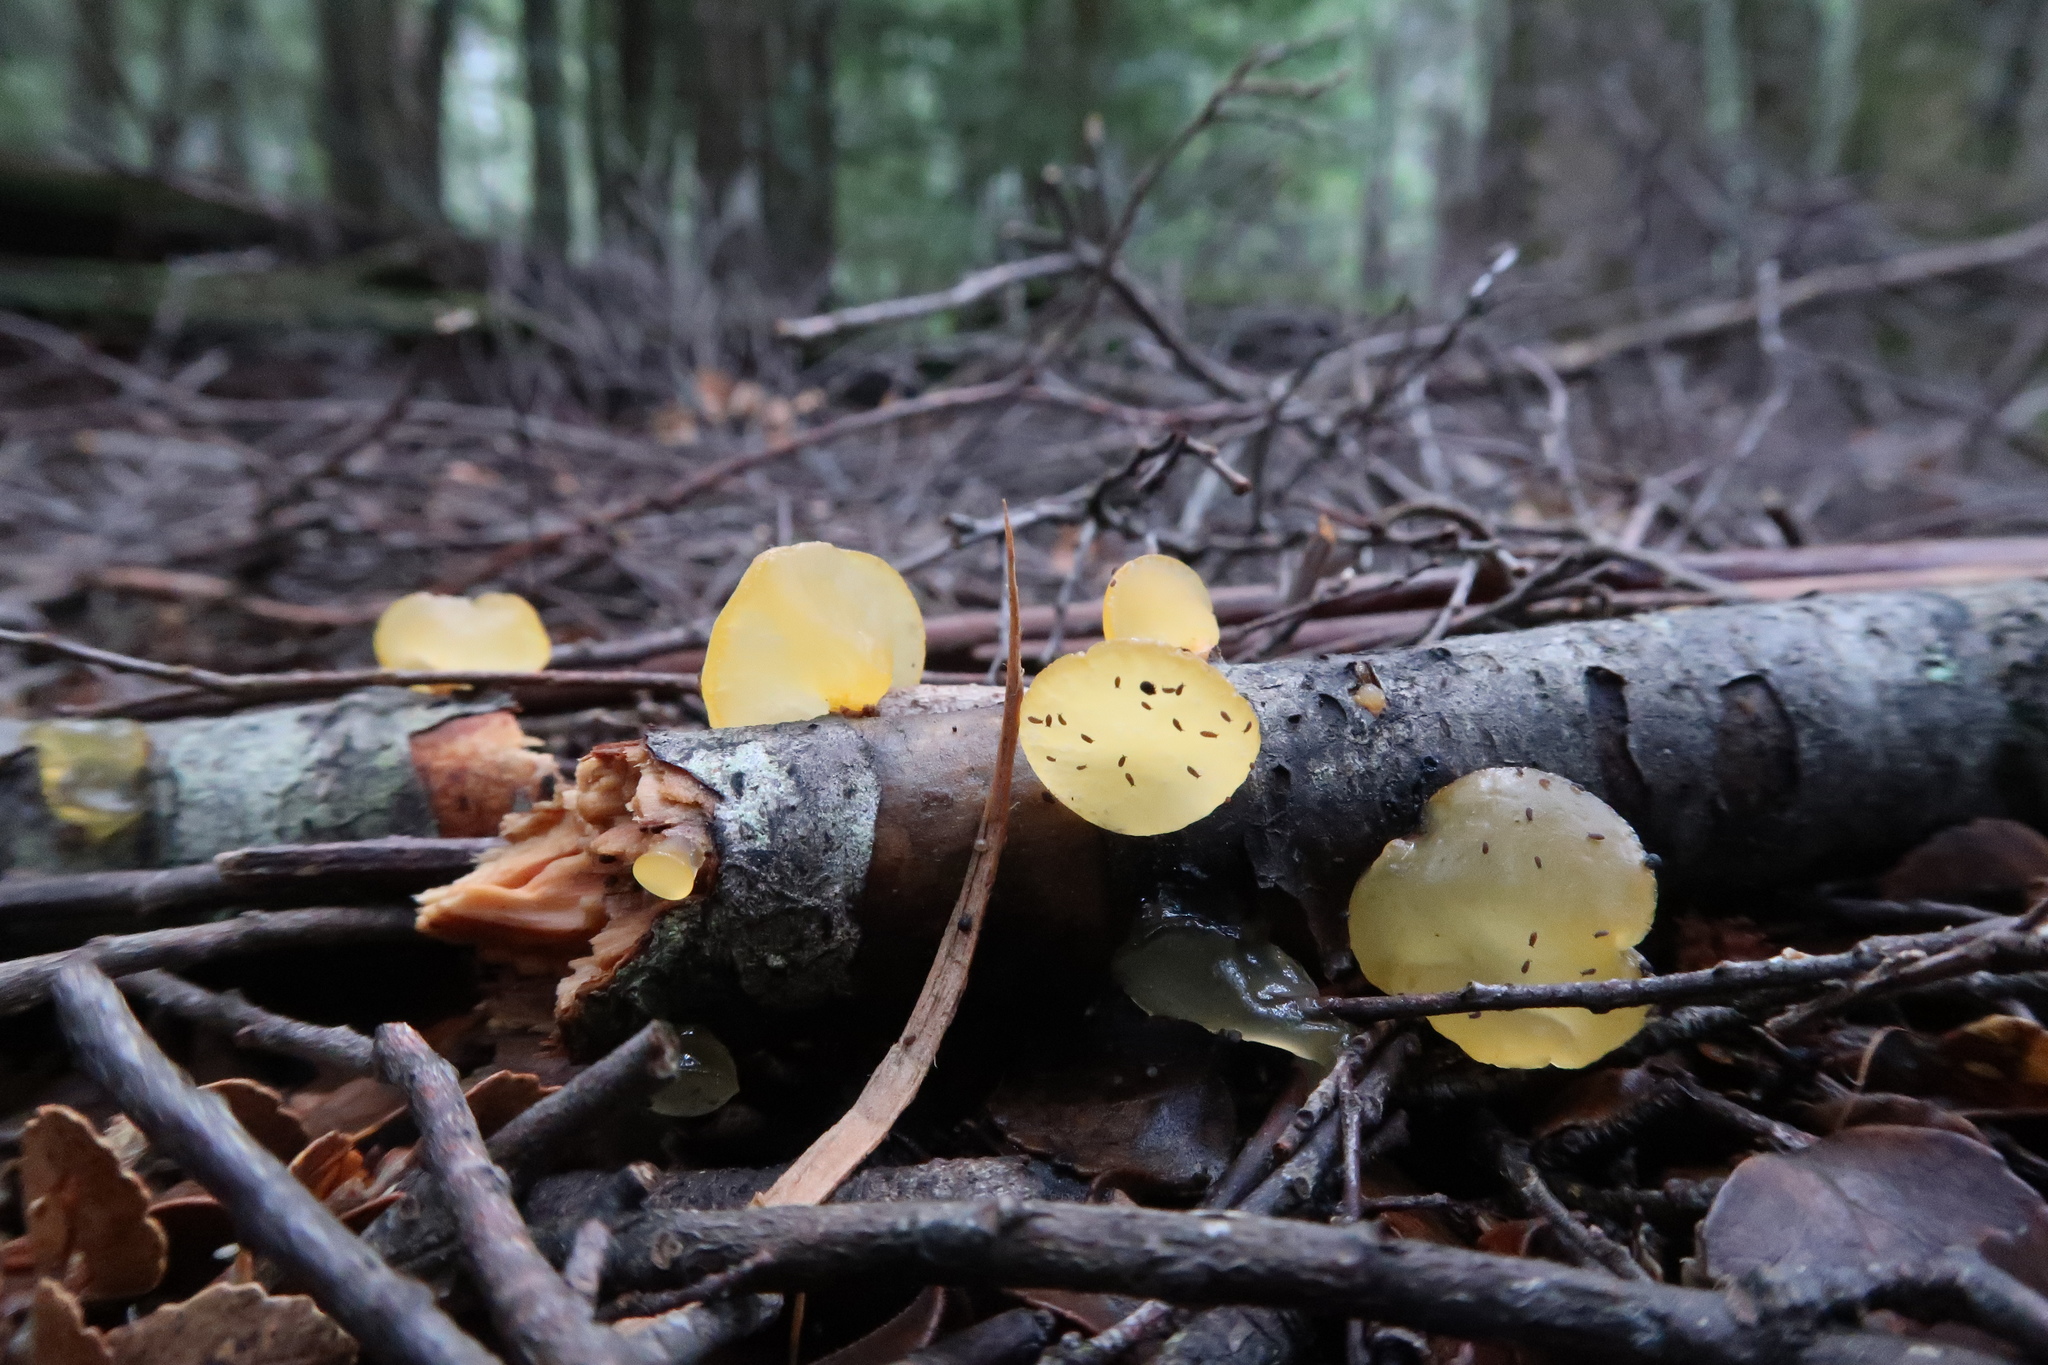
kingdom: Fungi
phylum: Basidiomycota
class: Dacrymycetes
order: Dacrymycetales
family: Dacrymycetaceae
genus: Heterotextus
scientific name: Heterotextus peziziformis
